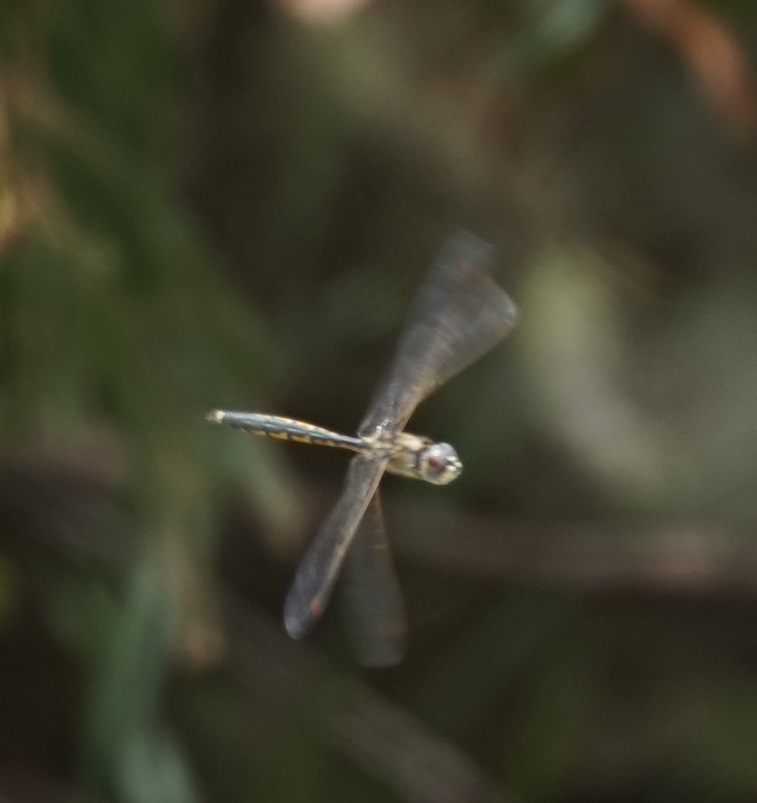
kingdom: Animalia
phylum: Arthropoda
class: Insecta
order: Odonata
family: Corduliidae
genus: Hemicordulia
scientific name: Hemicordulia tau
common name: Tau emerald
